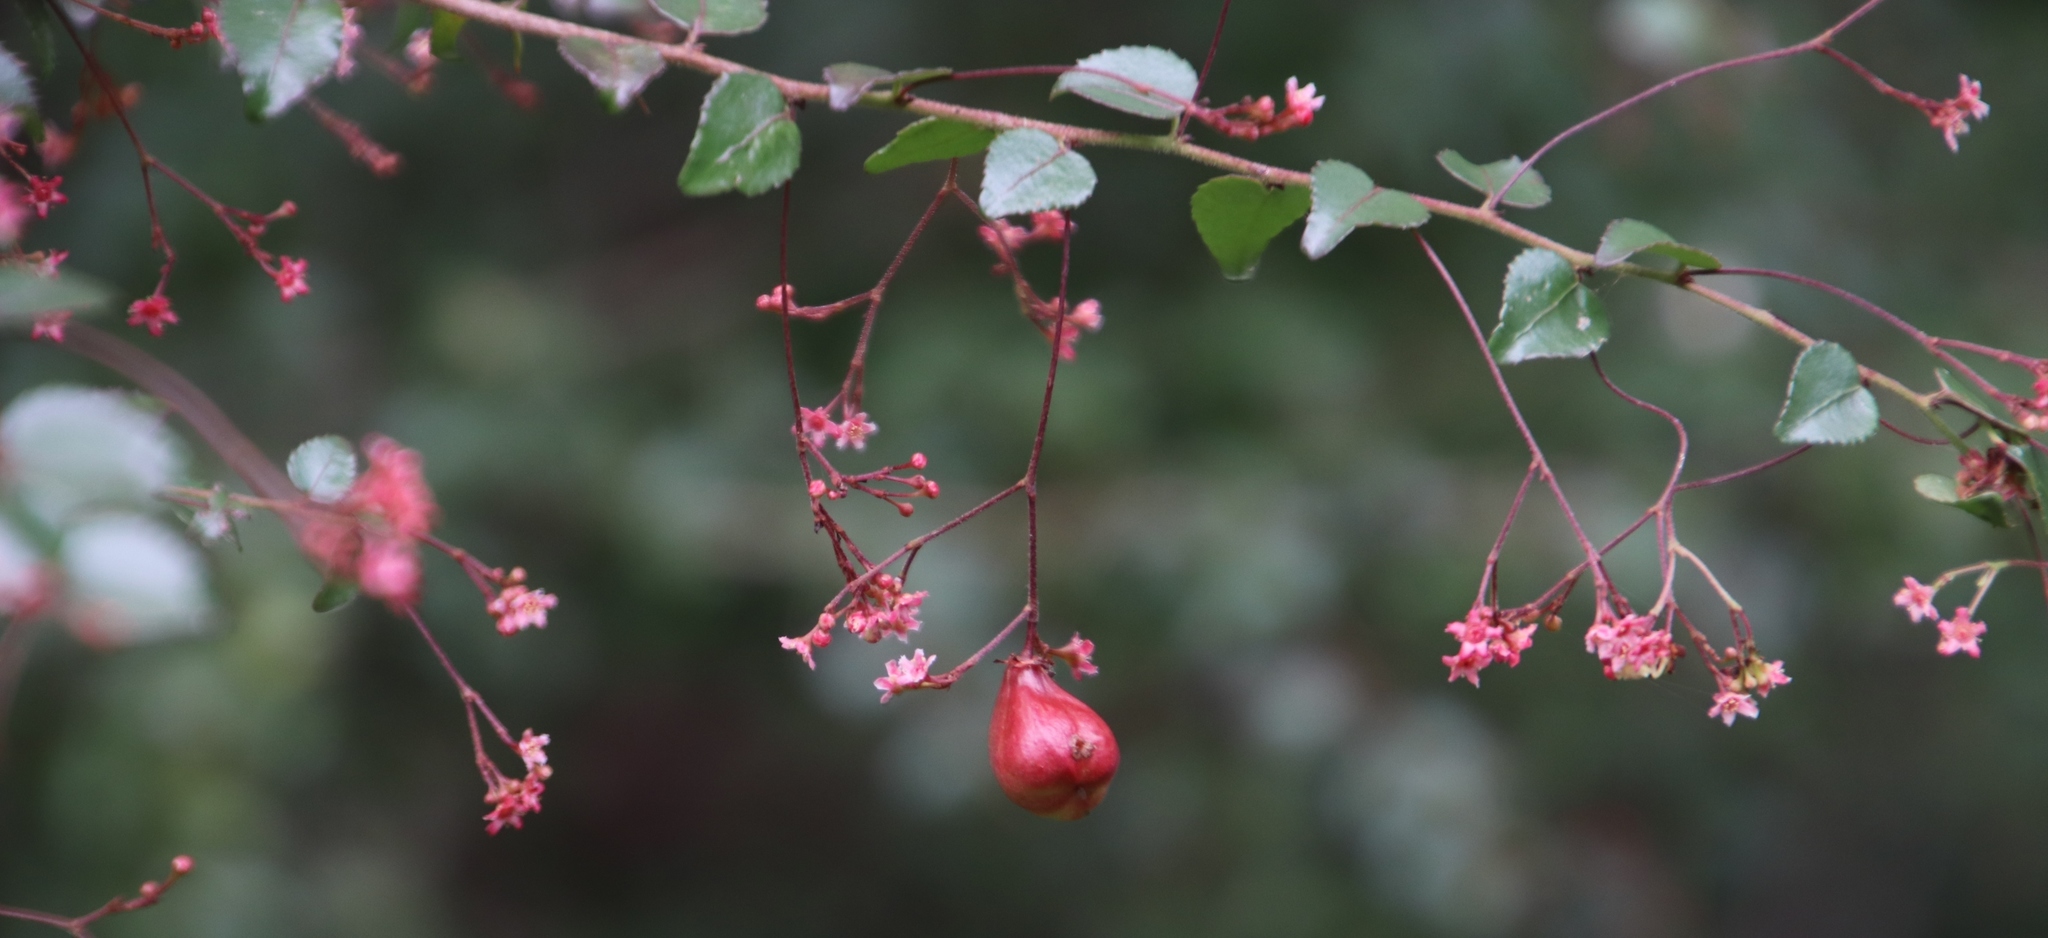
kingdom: Plantae
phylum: Tracheophyta
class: Magnoliopsida
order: Celastrales
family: Celastraceae
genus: Gymnosporia
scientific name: Gymnosporia rubra
